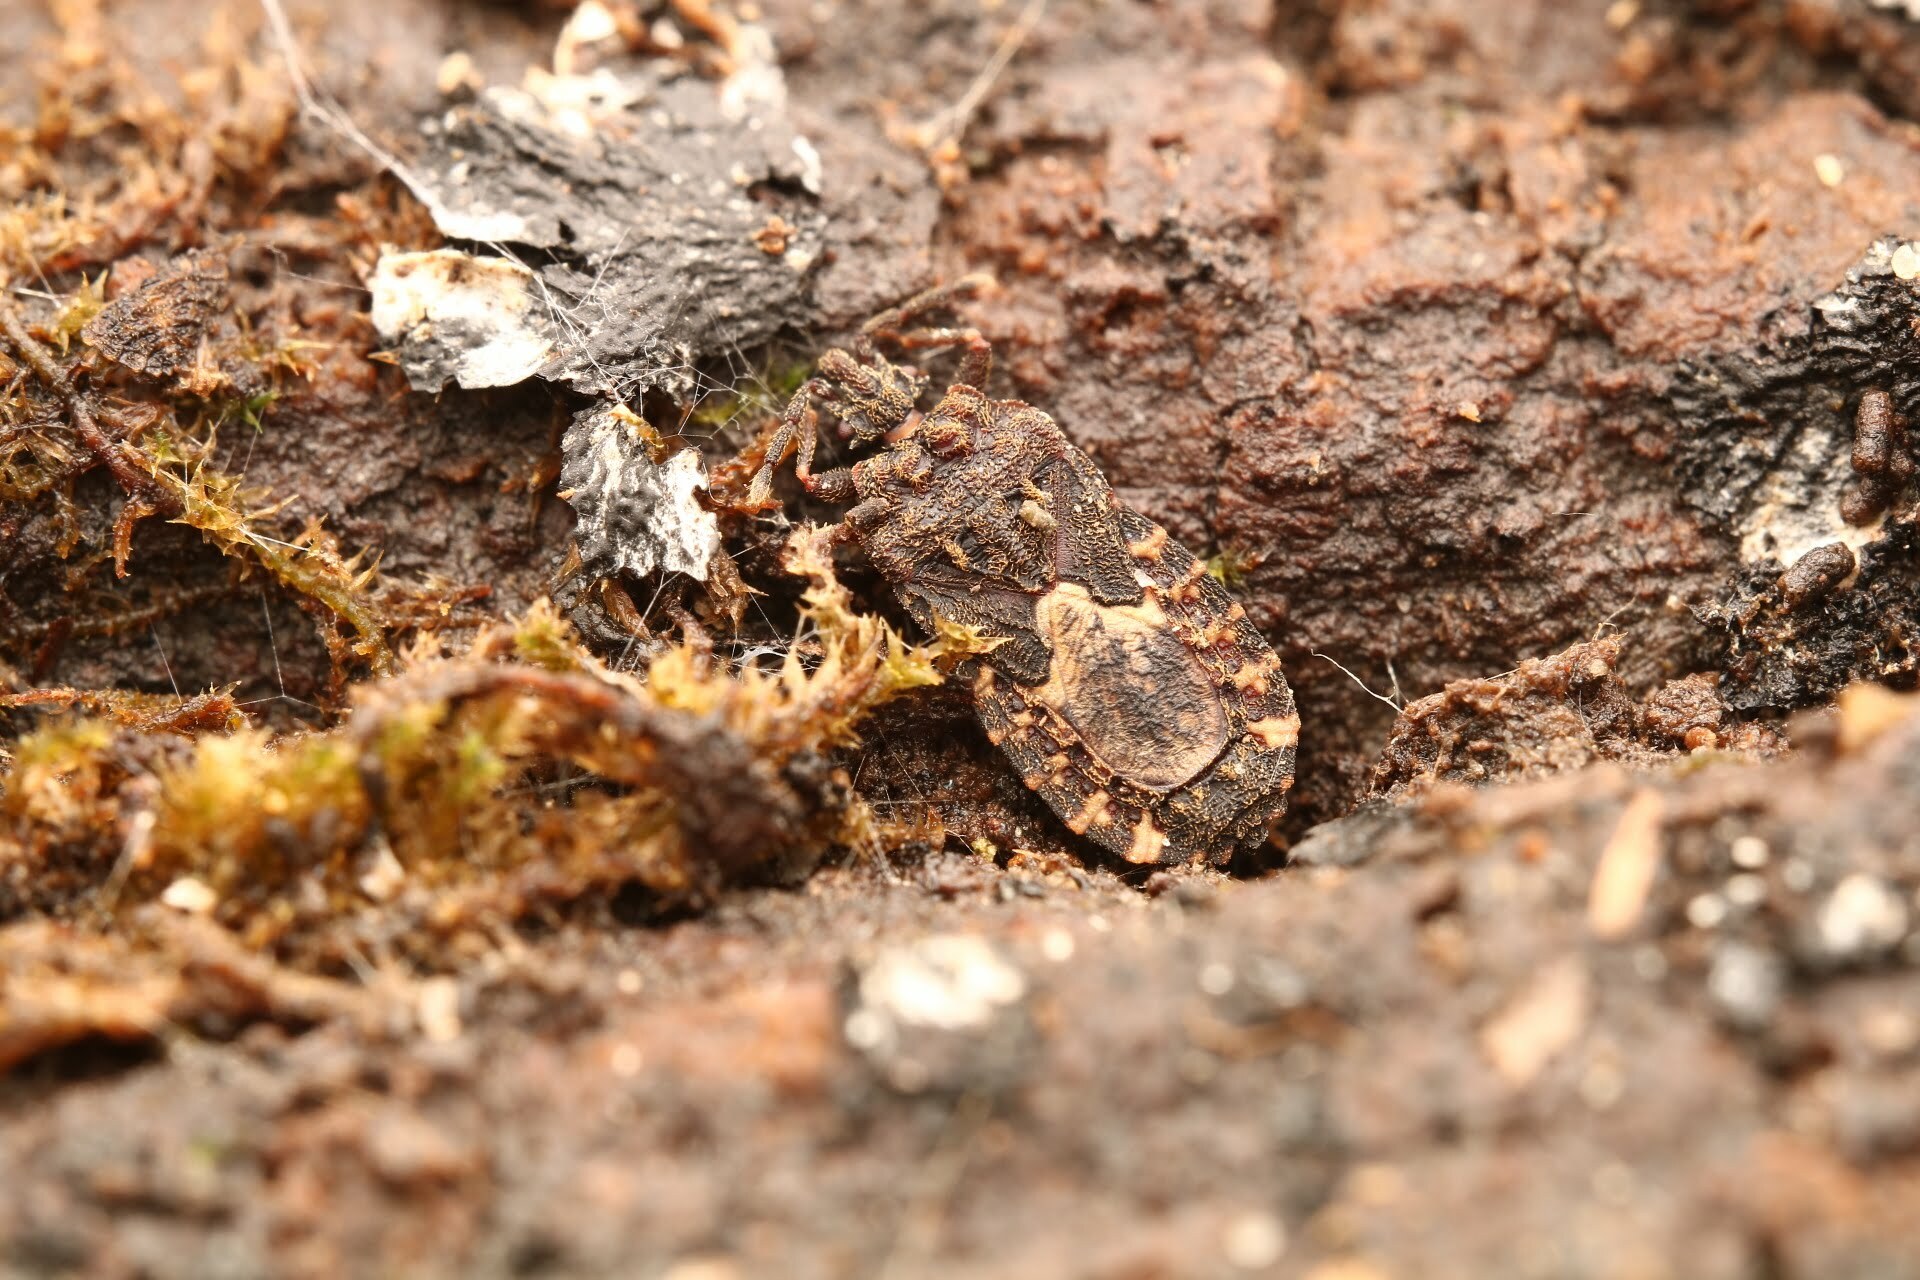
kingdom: Animalia
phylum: Arthropoda
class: Insecta
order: Hemiptera
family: Aradidae
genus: Mezira
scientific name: Mezira
